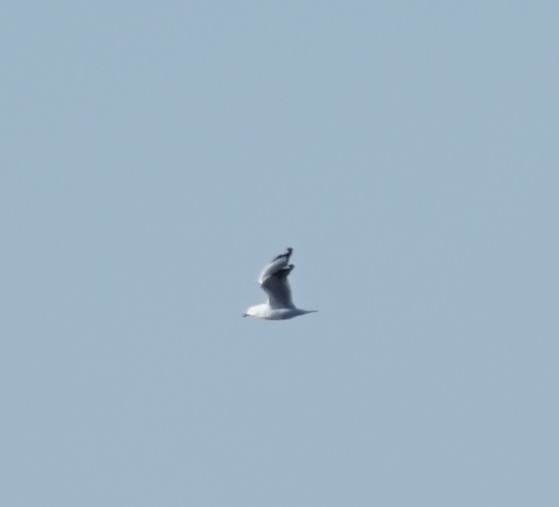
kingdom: Animalia
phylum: Chordata
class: Aves
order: Charadriiformes
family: Laridae
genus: Chroicocephalus
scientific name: Chroicocephalus novaehollandiae
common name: Silver gull
